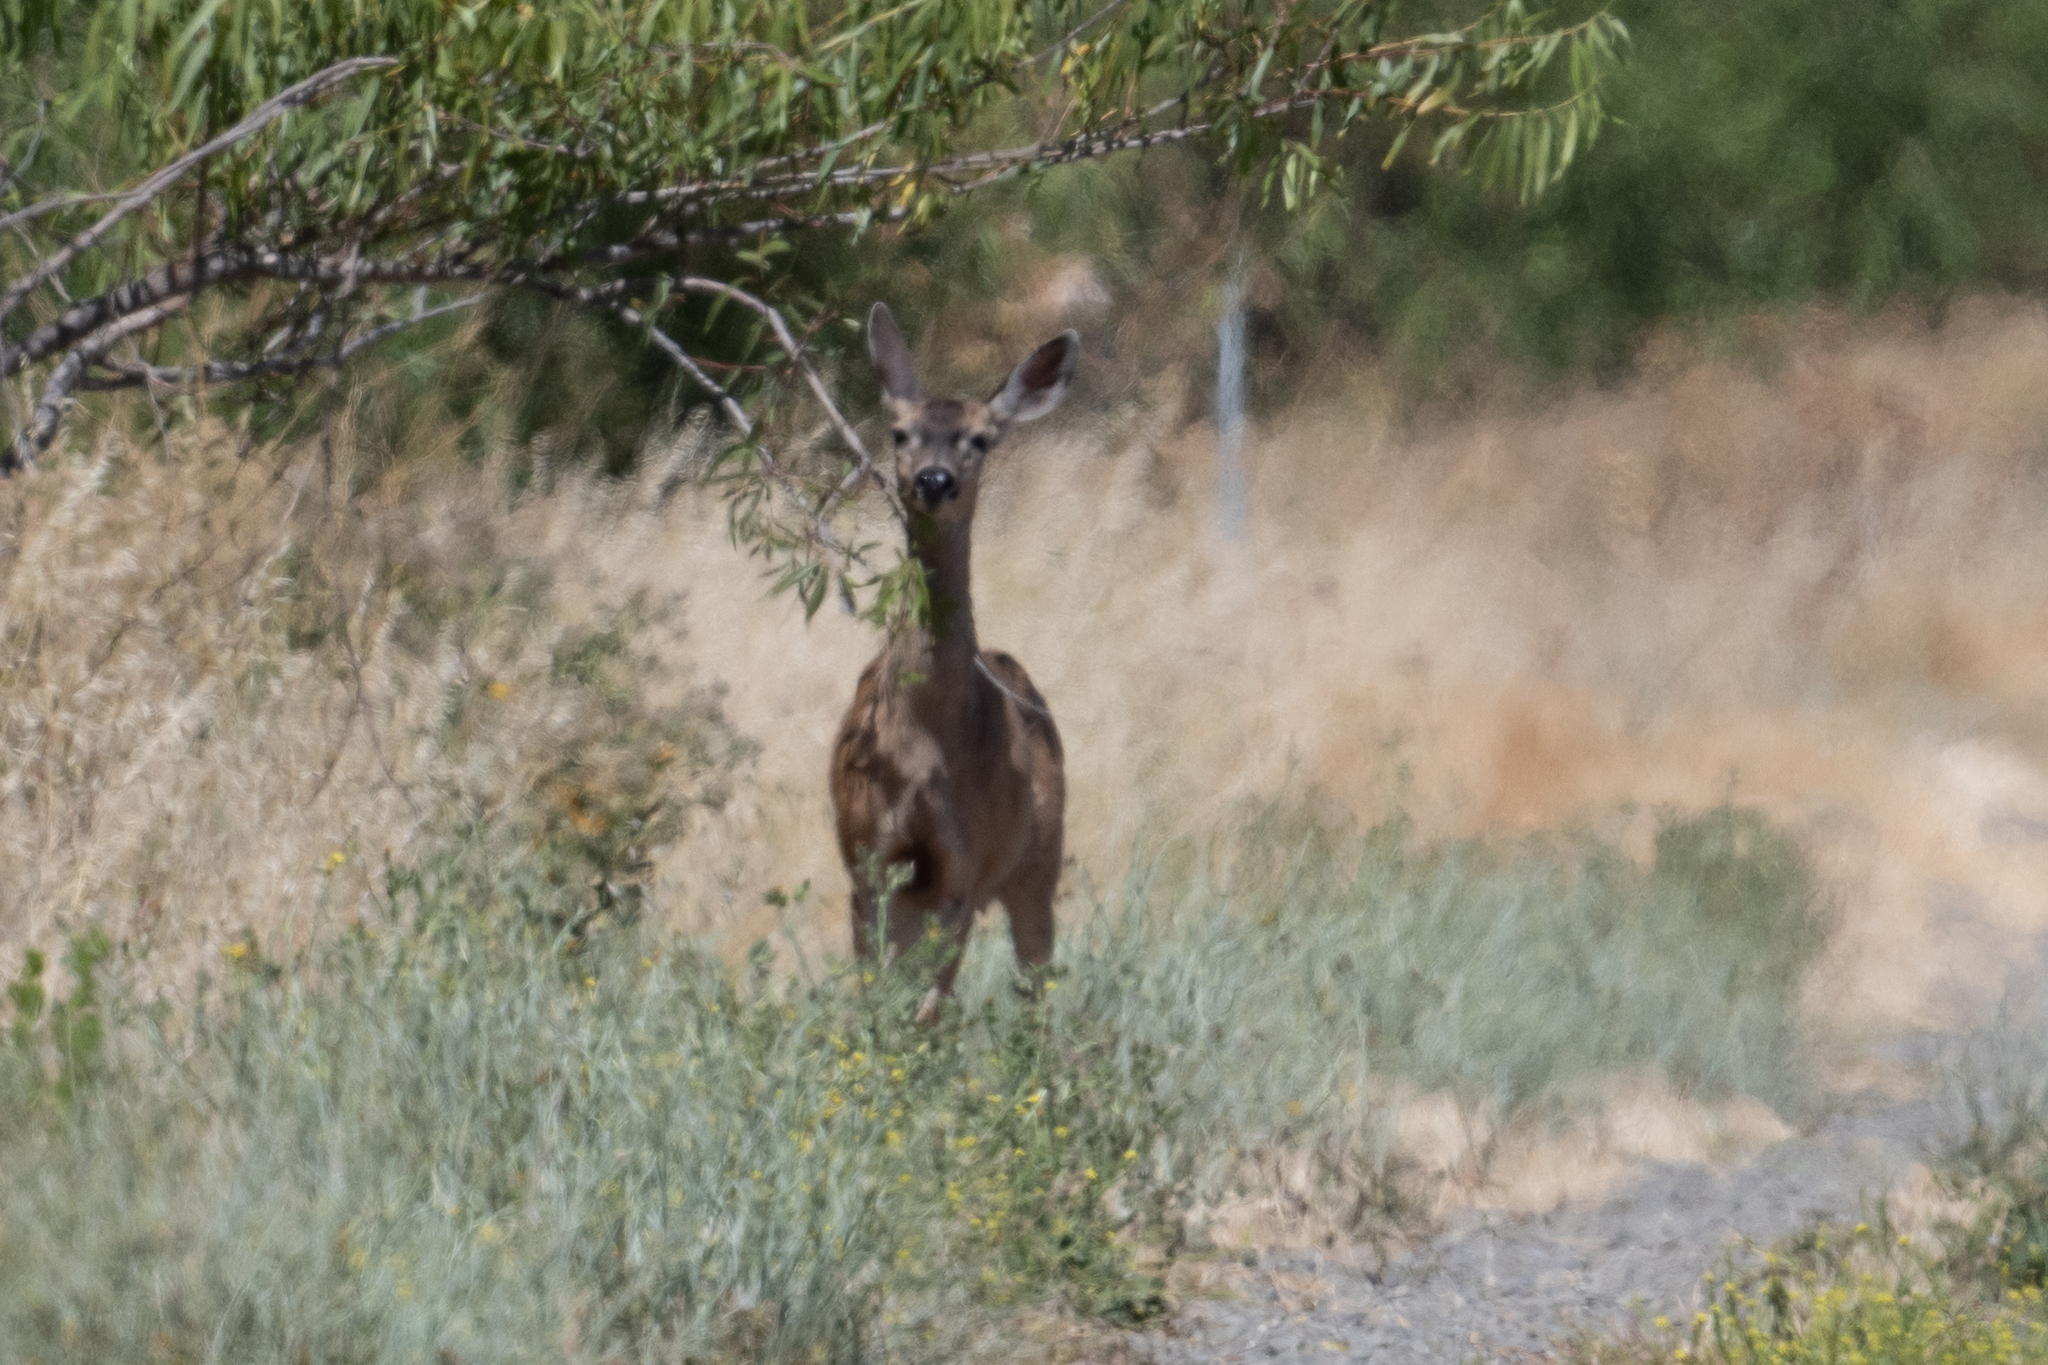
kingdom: Animalia
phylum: Chordata
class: Mammalia
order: Artiodactyla
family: Cervidae
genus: Odocoileus
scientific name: Odocoileus hemionus
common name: Mule deer
